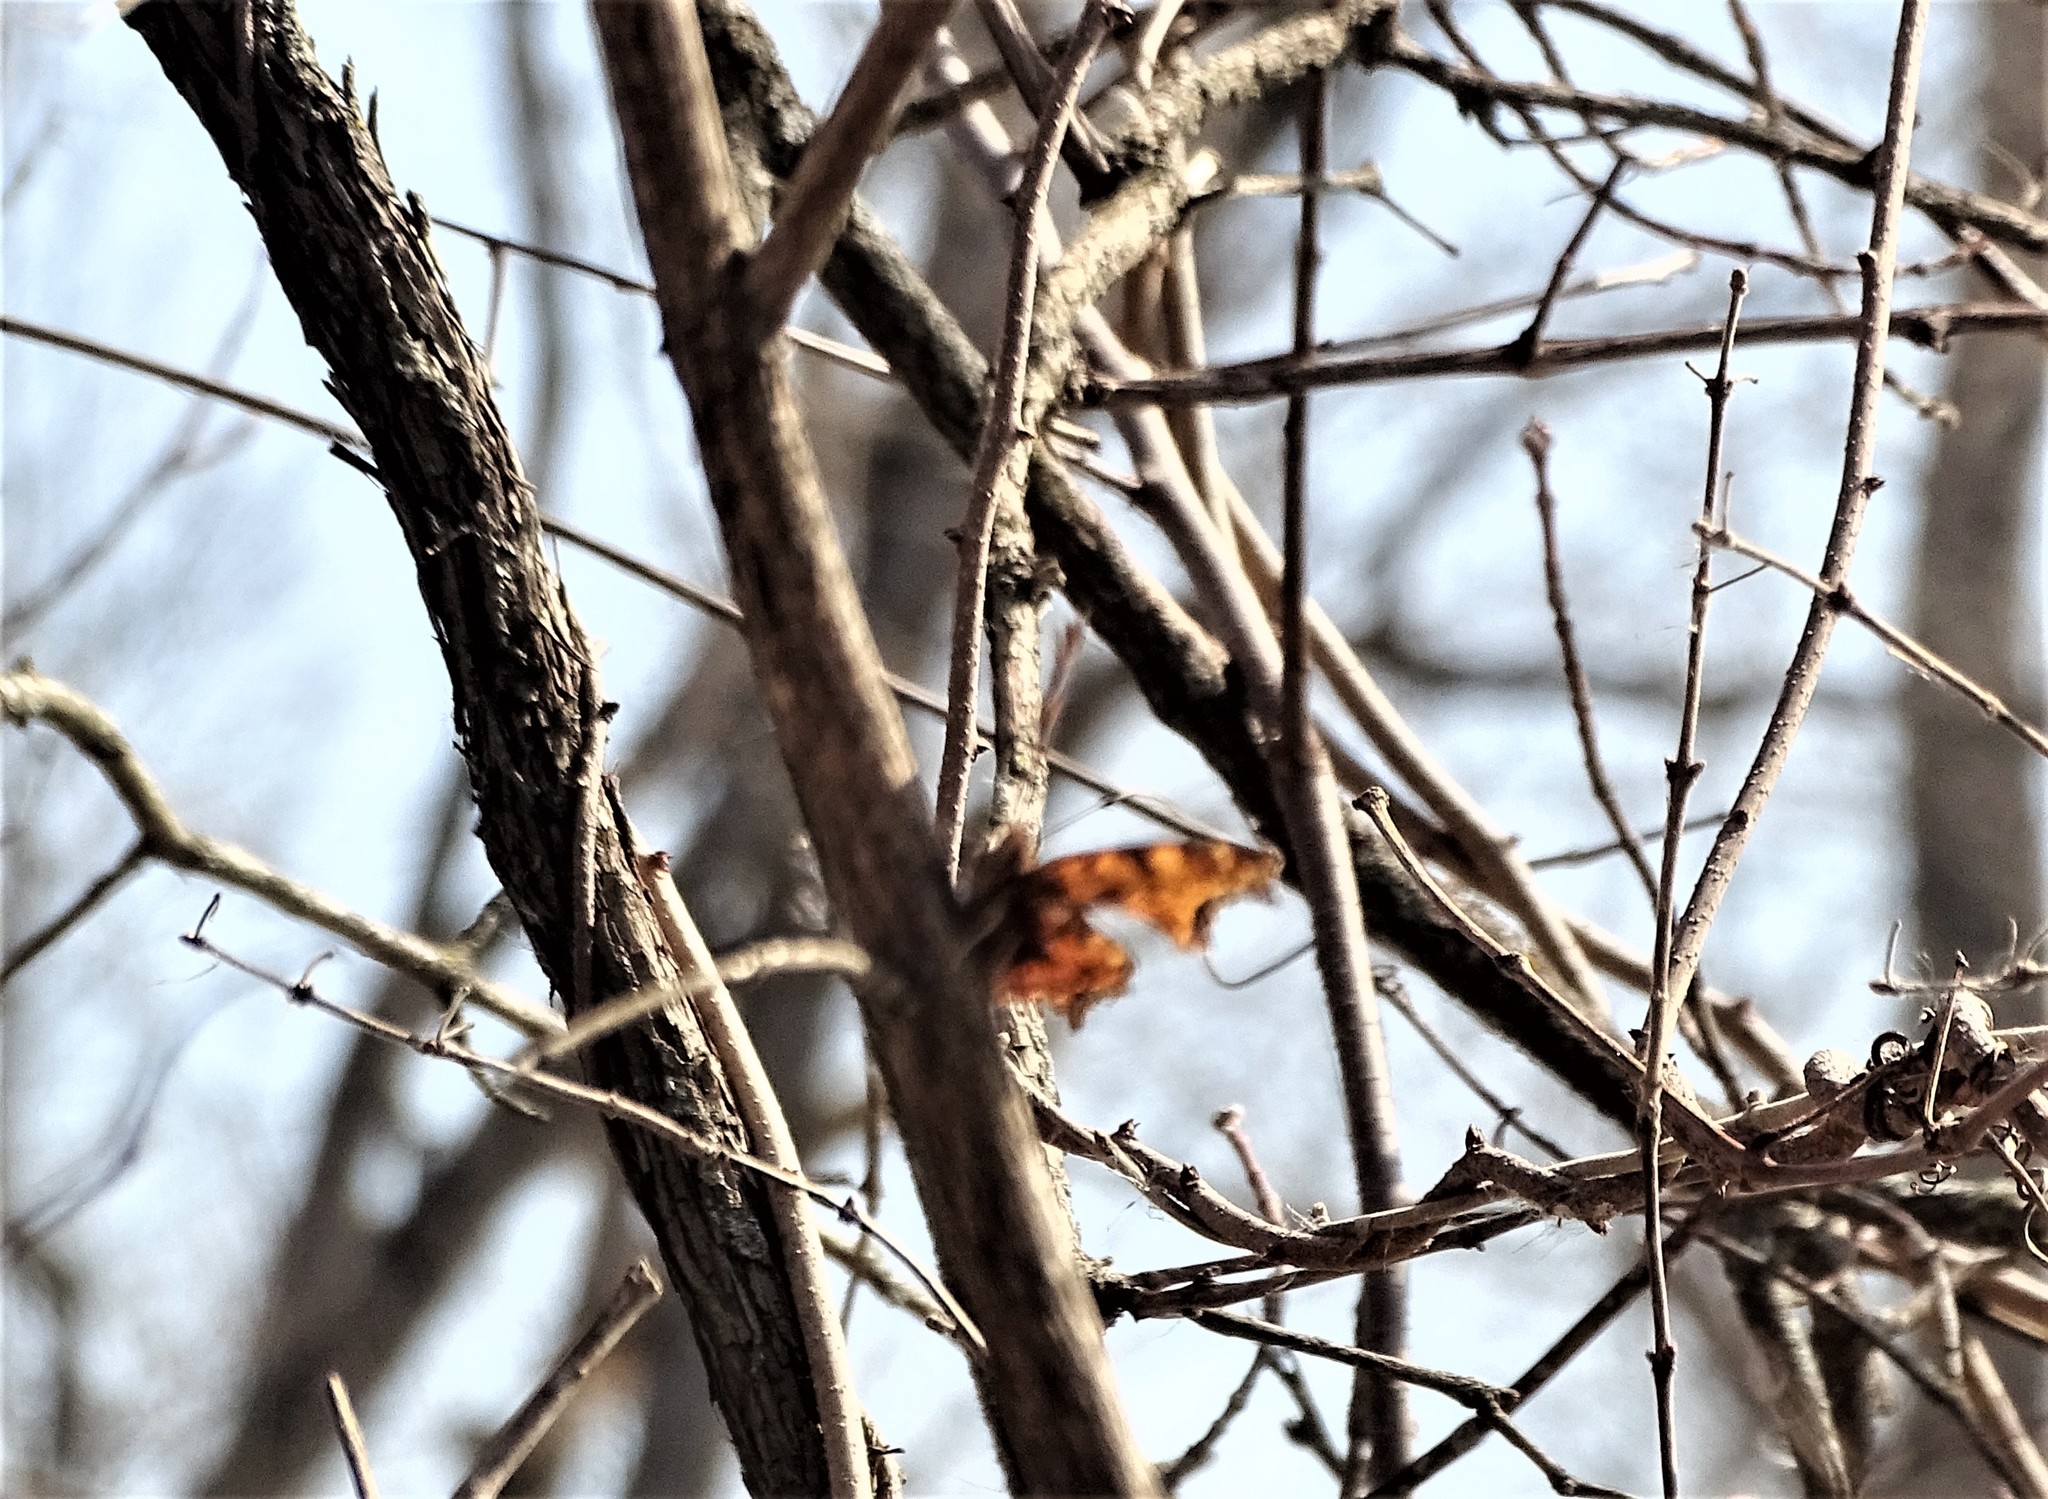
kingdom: Animalia
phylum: Arthropoda
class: Insecta
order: Lepidoptera
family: Nymphalidae
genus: Polygonia
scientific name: Polygonia
